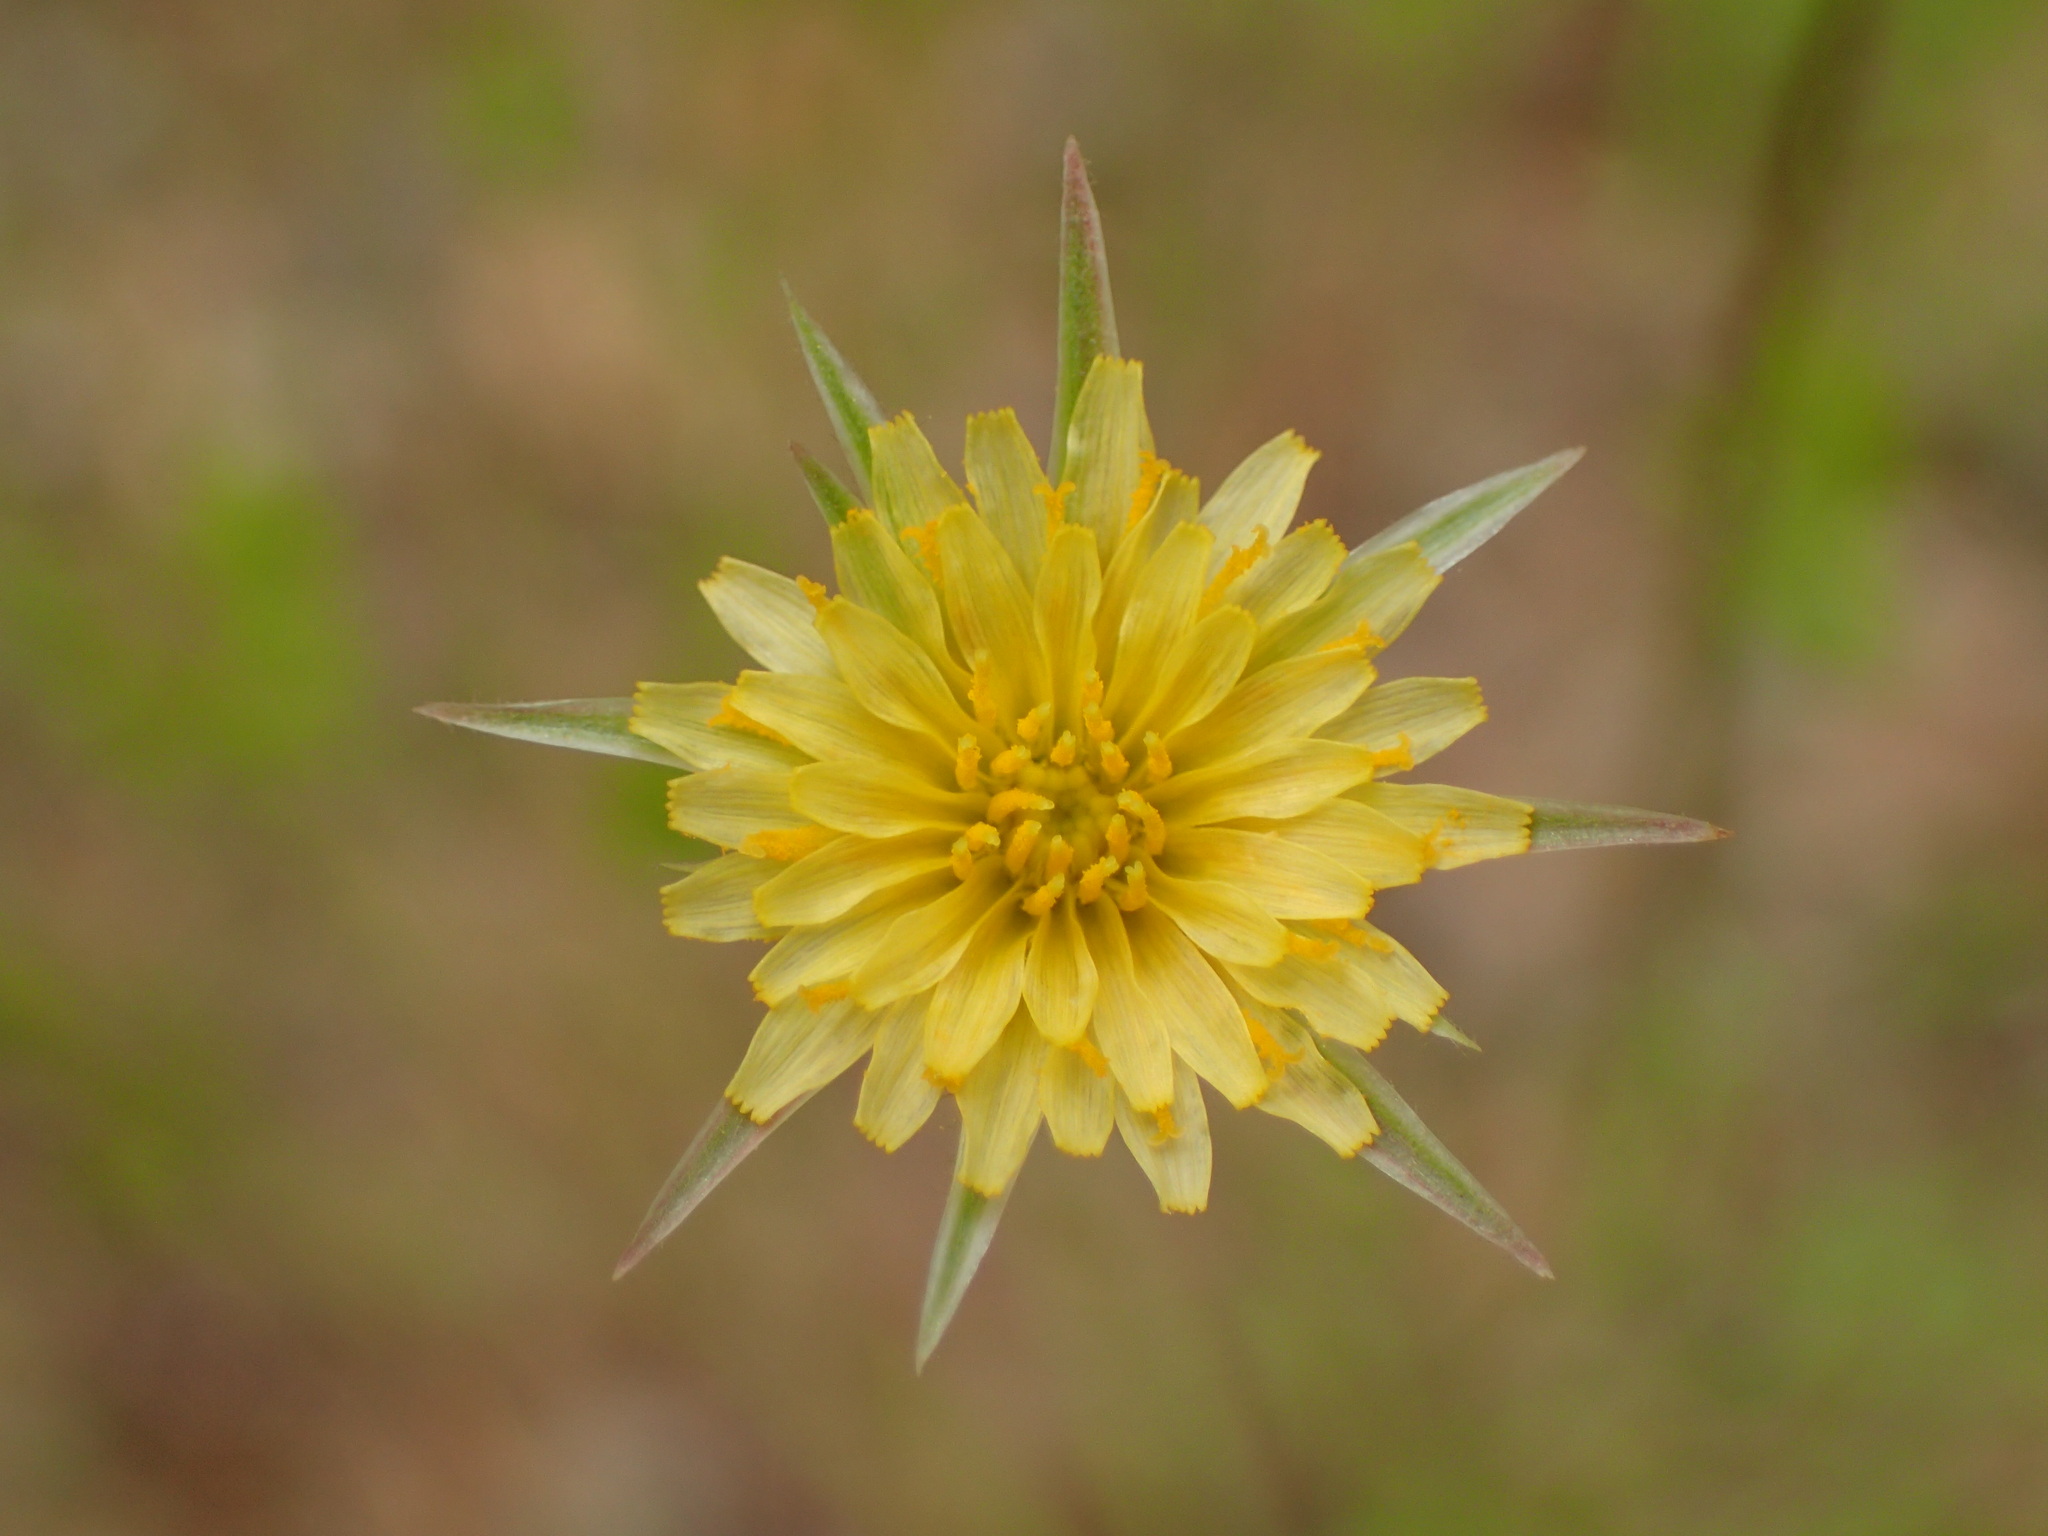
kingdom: Plantae
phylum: Tracheophyta
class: Magnoliopsida
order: Asterales
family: Asteraceae
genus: Microseris
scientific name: Microseris lindleyi
